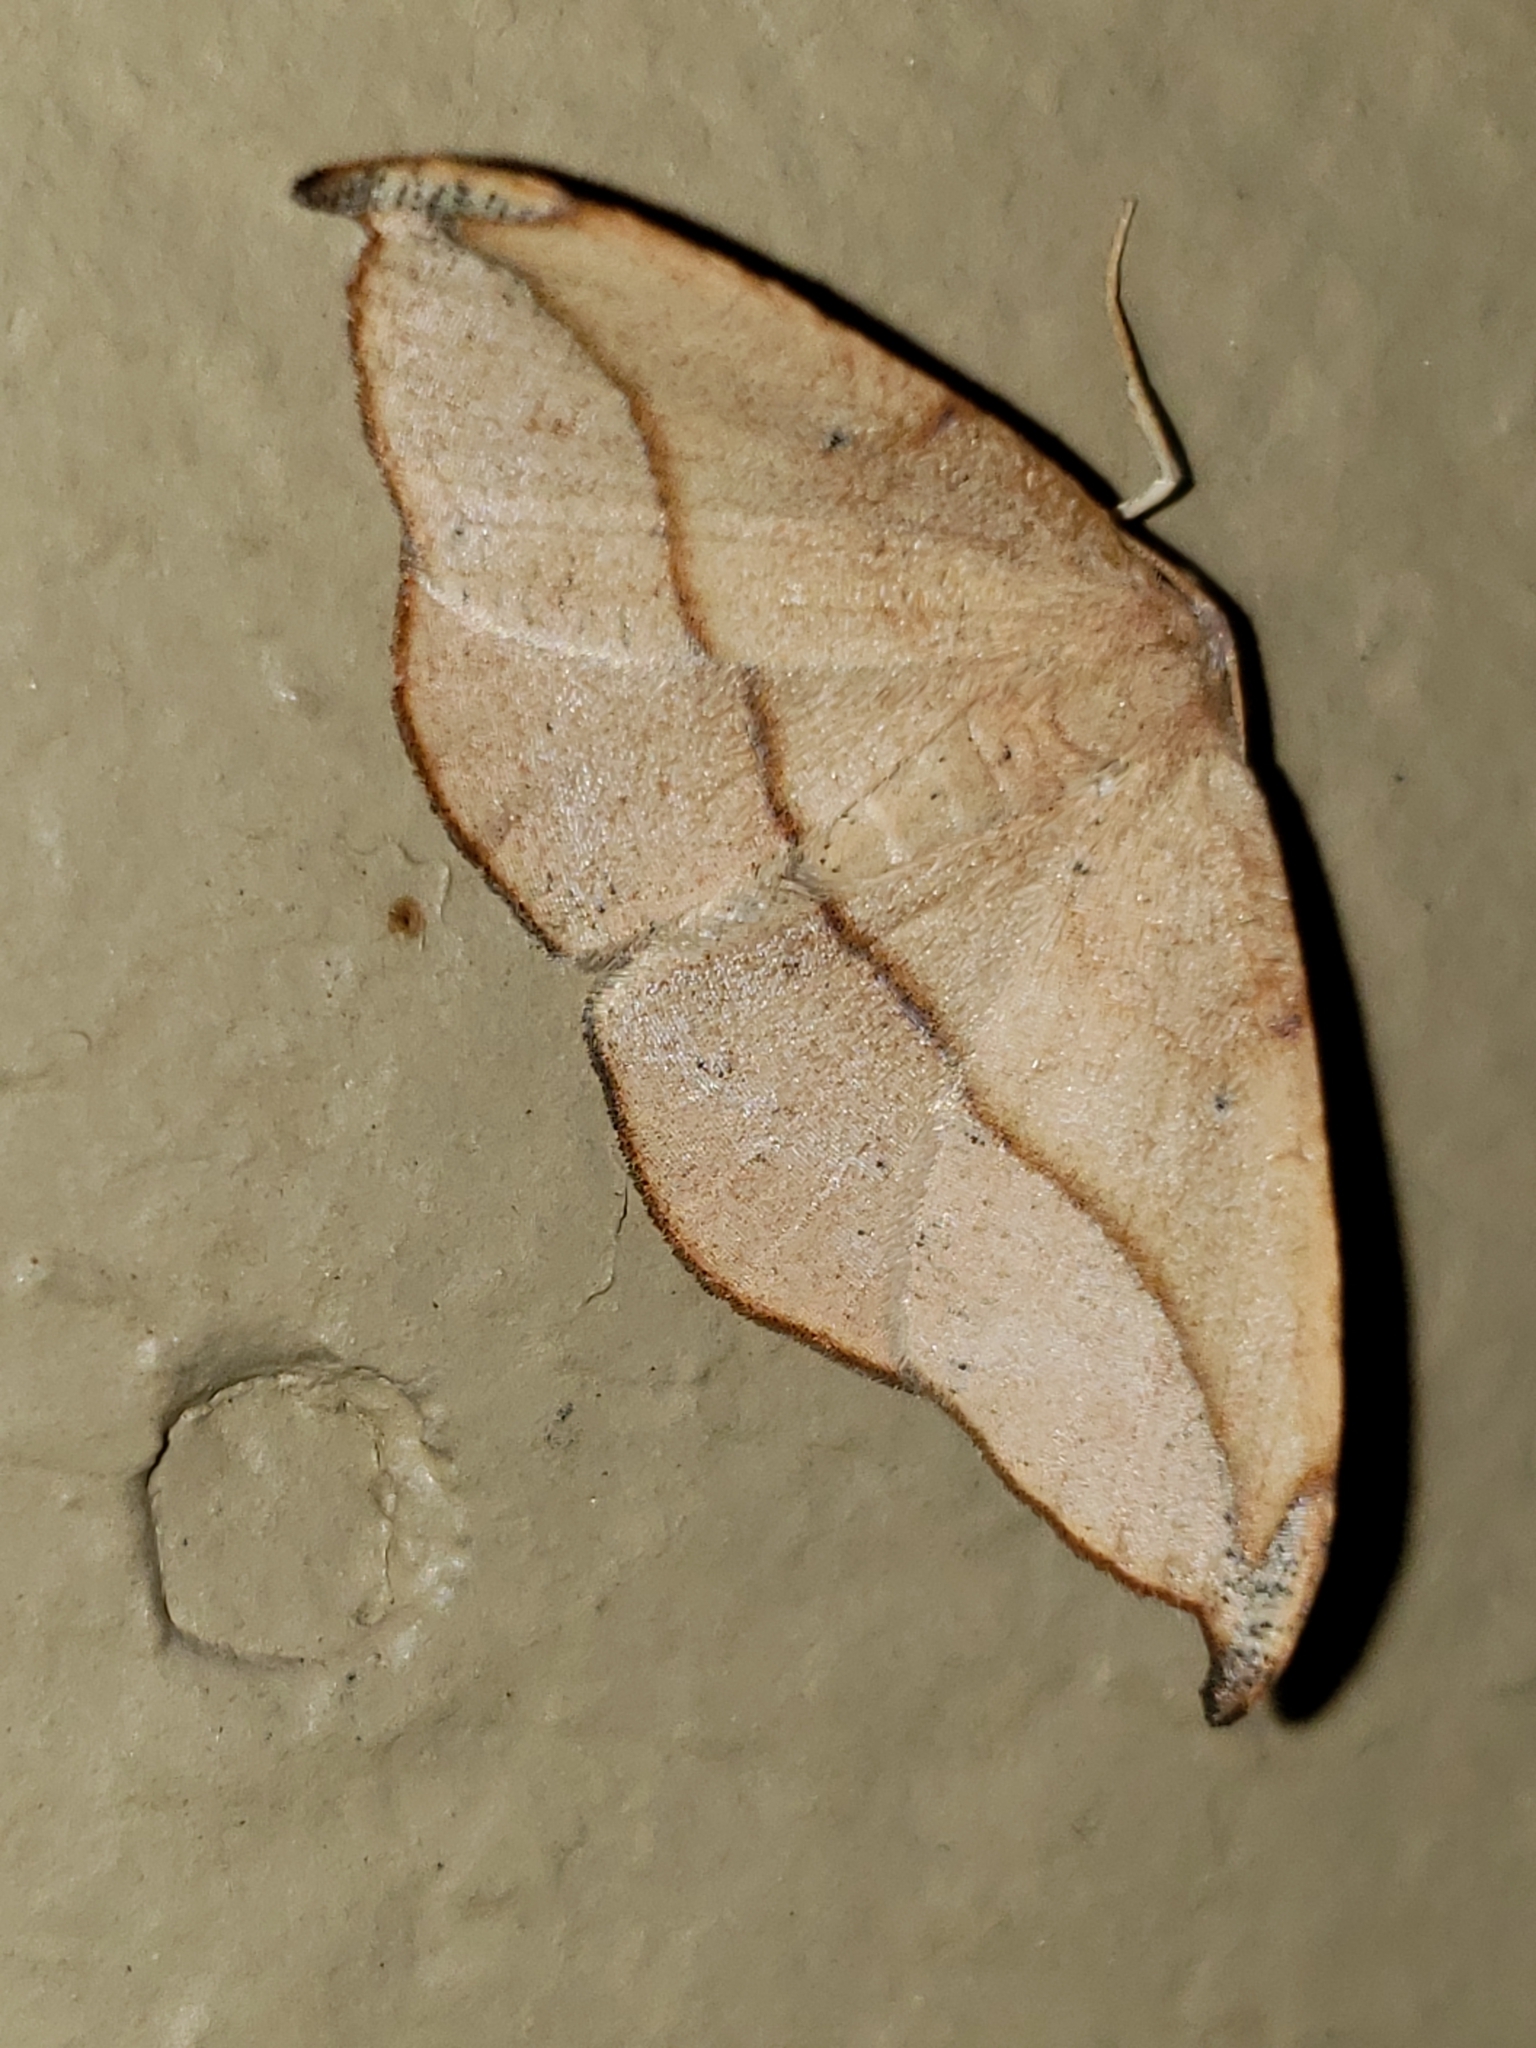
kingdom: Animalia
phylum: Arthropoda
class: Insecta
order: Lepidoptera
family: Geometridae
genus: Patalene
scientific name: Patalene olyzonaria
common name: Juniper geometer moth
